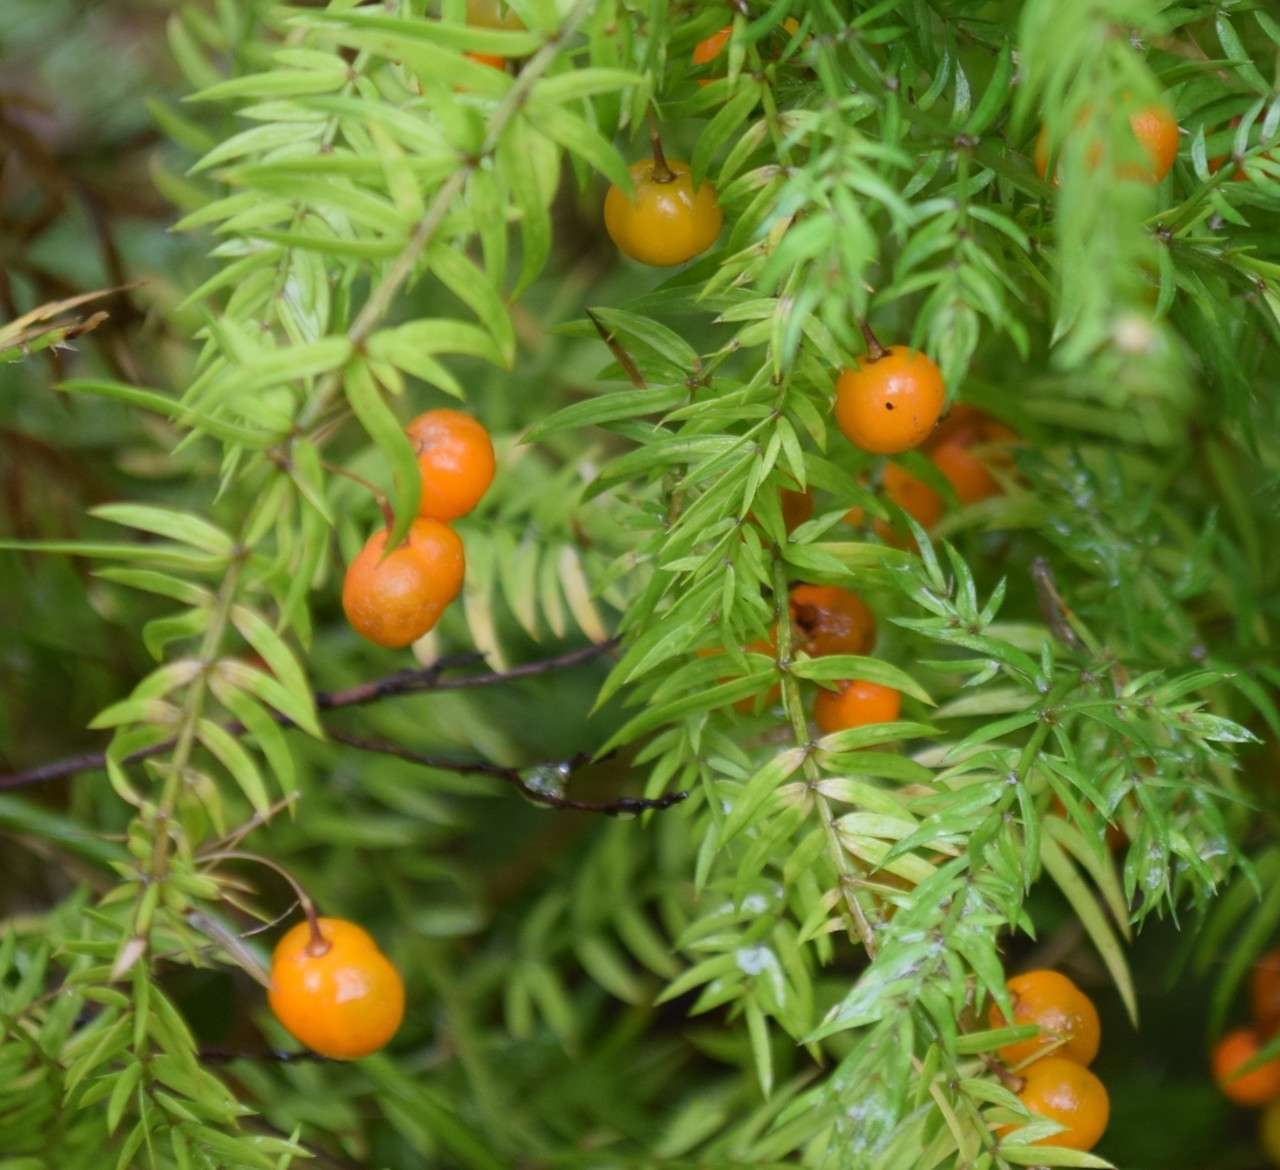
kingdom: Plantae
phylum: Tracheophyta
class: Liliopsida
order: Asparagales
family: Asparagaceae
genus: Asparagus
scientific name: Asparagus scandens
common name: Asparagus-fern
